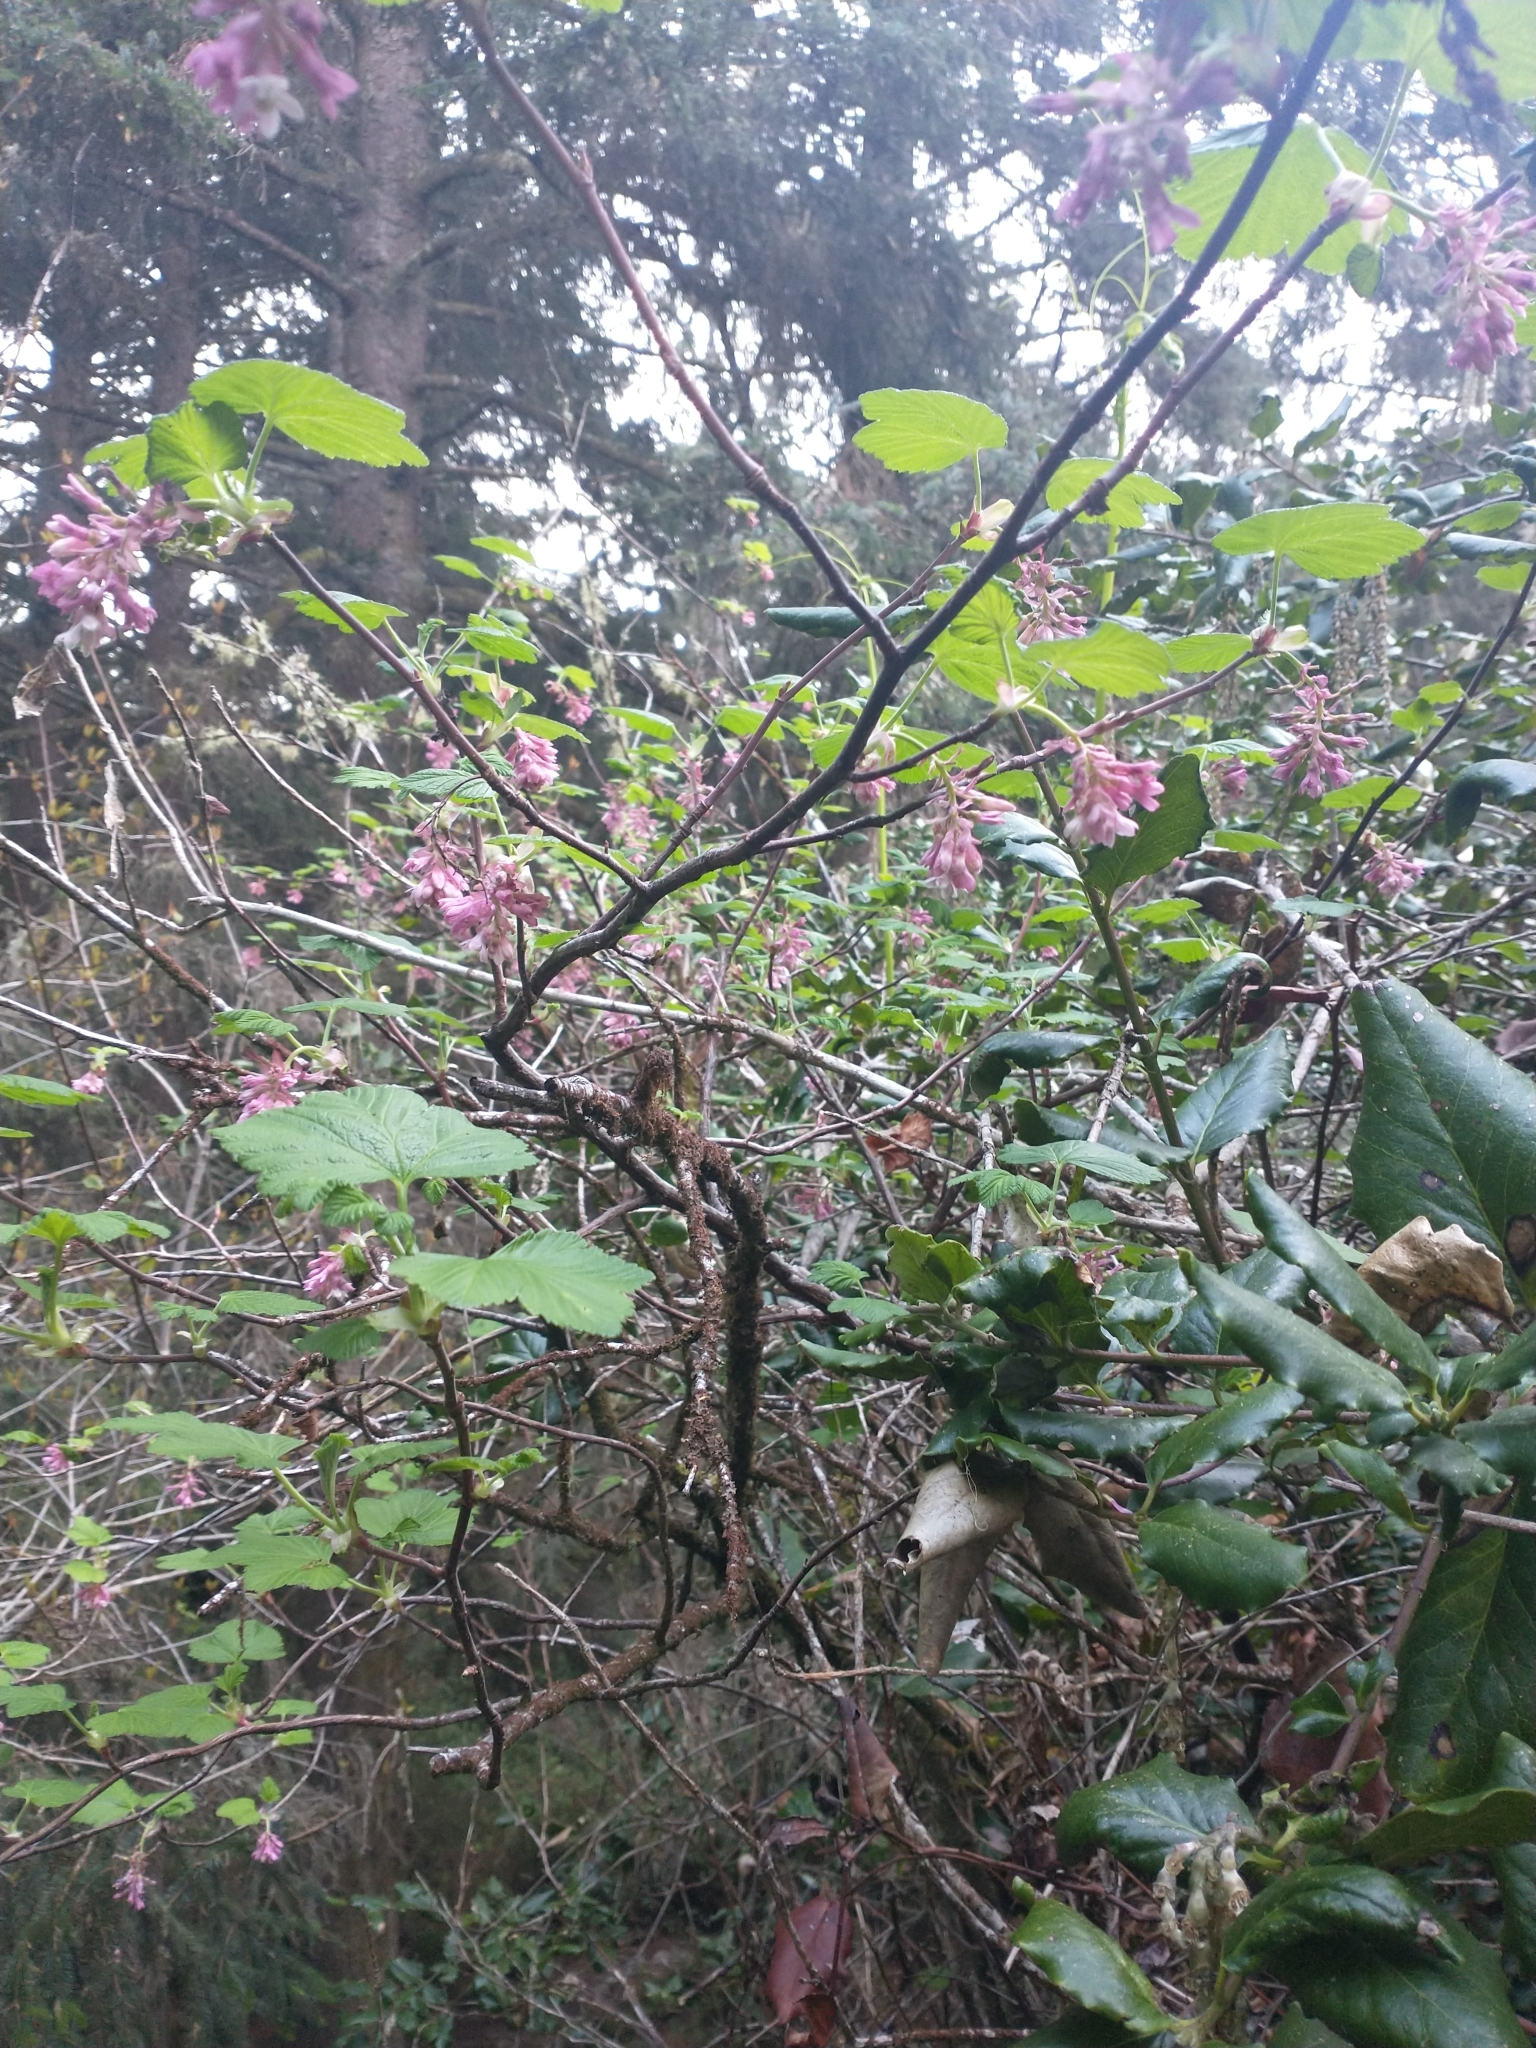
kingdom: Plantae
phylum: Tracheophyta
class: Magnoliopsida
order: Saxifragales
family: Grossulariaceae
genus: Ribes
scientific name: Ribes sanguineum
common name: Flowering currant
